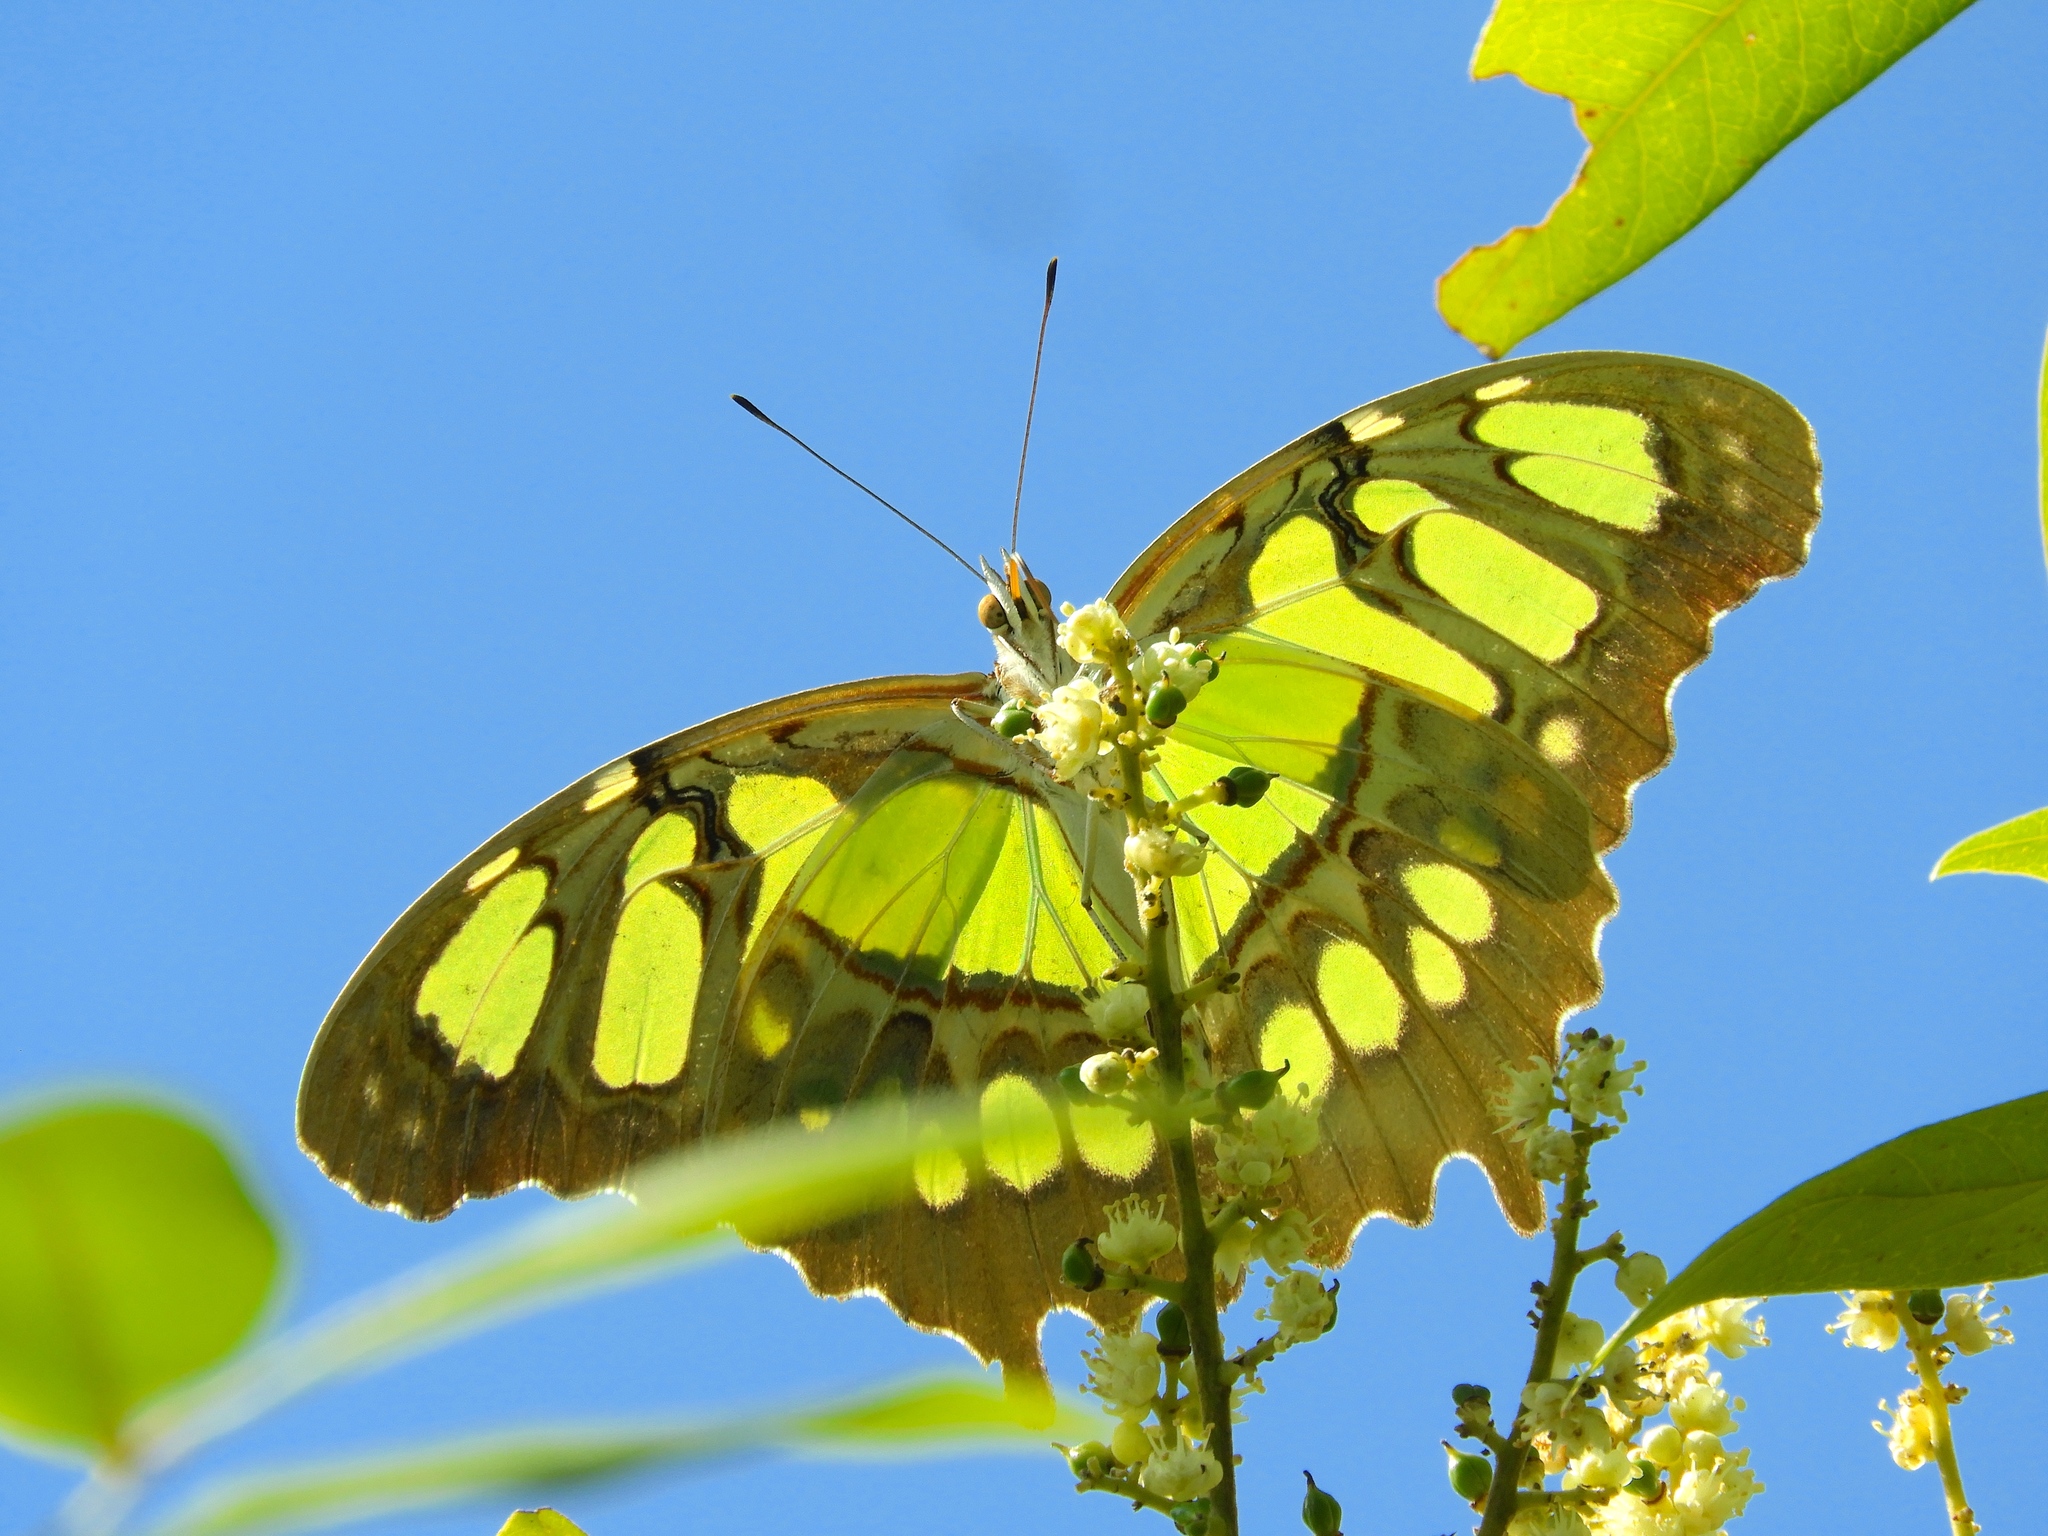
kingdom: Animalia
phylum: Arthropoda
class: Insecta
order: Lepidoptera
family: Nymphalidae
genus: Siproeta
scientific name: Siproeta stelenes
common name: Malachite
